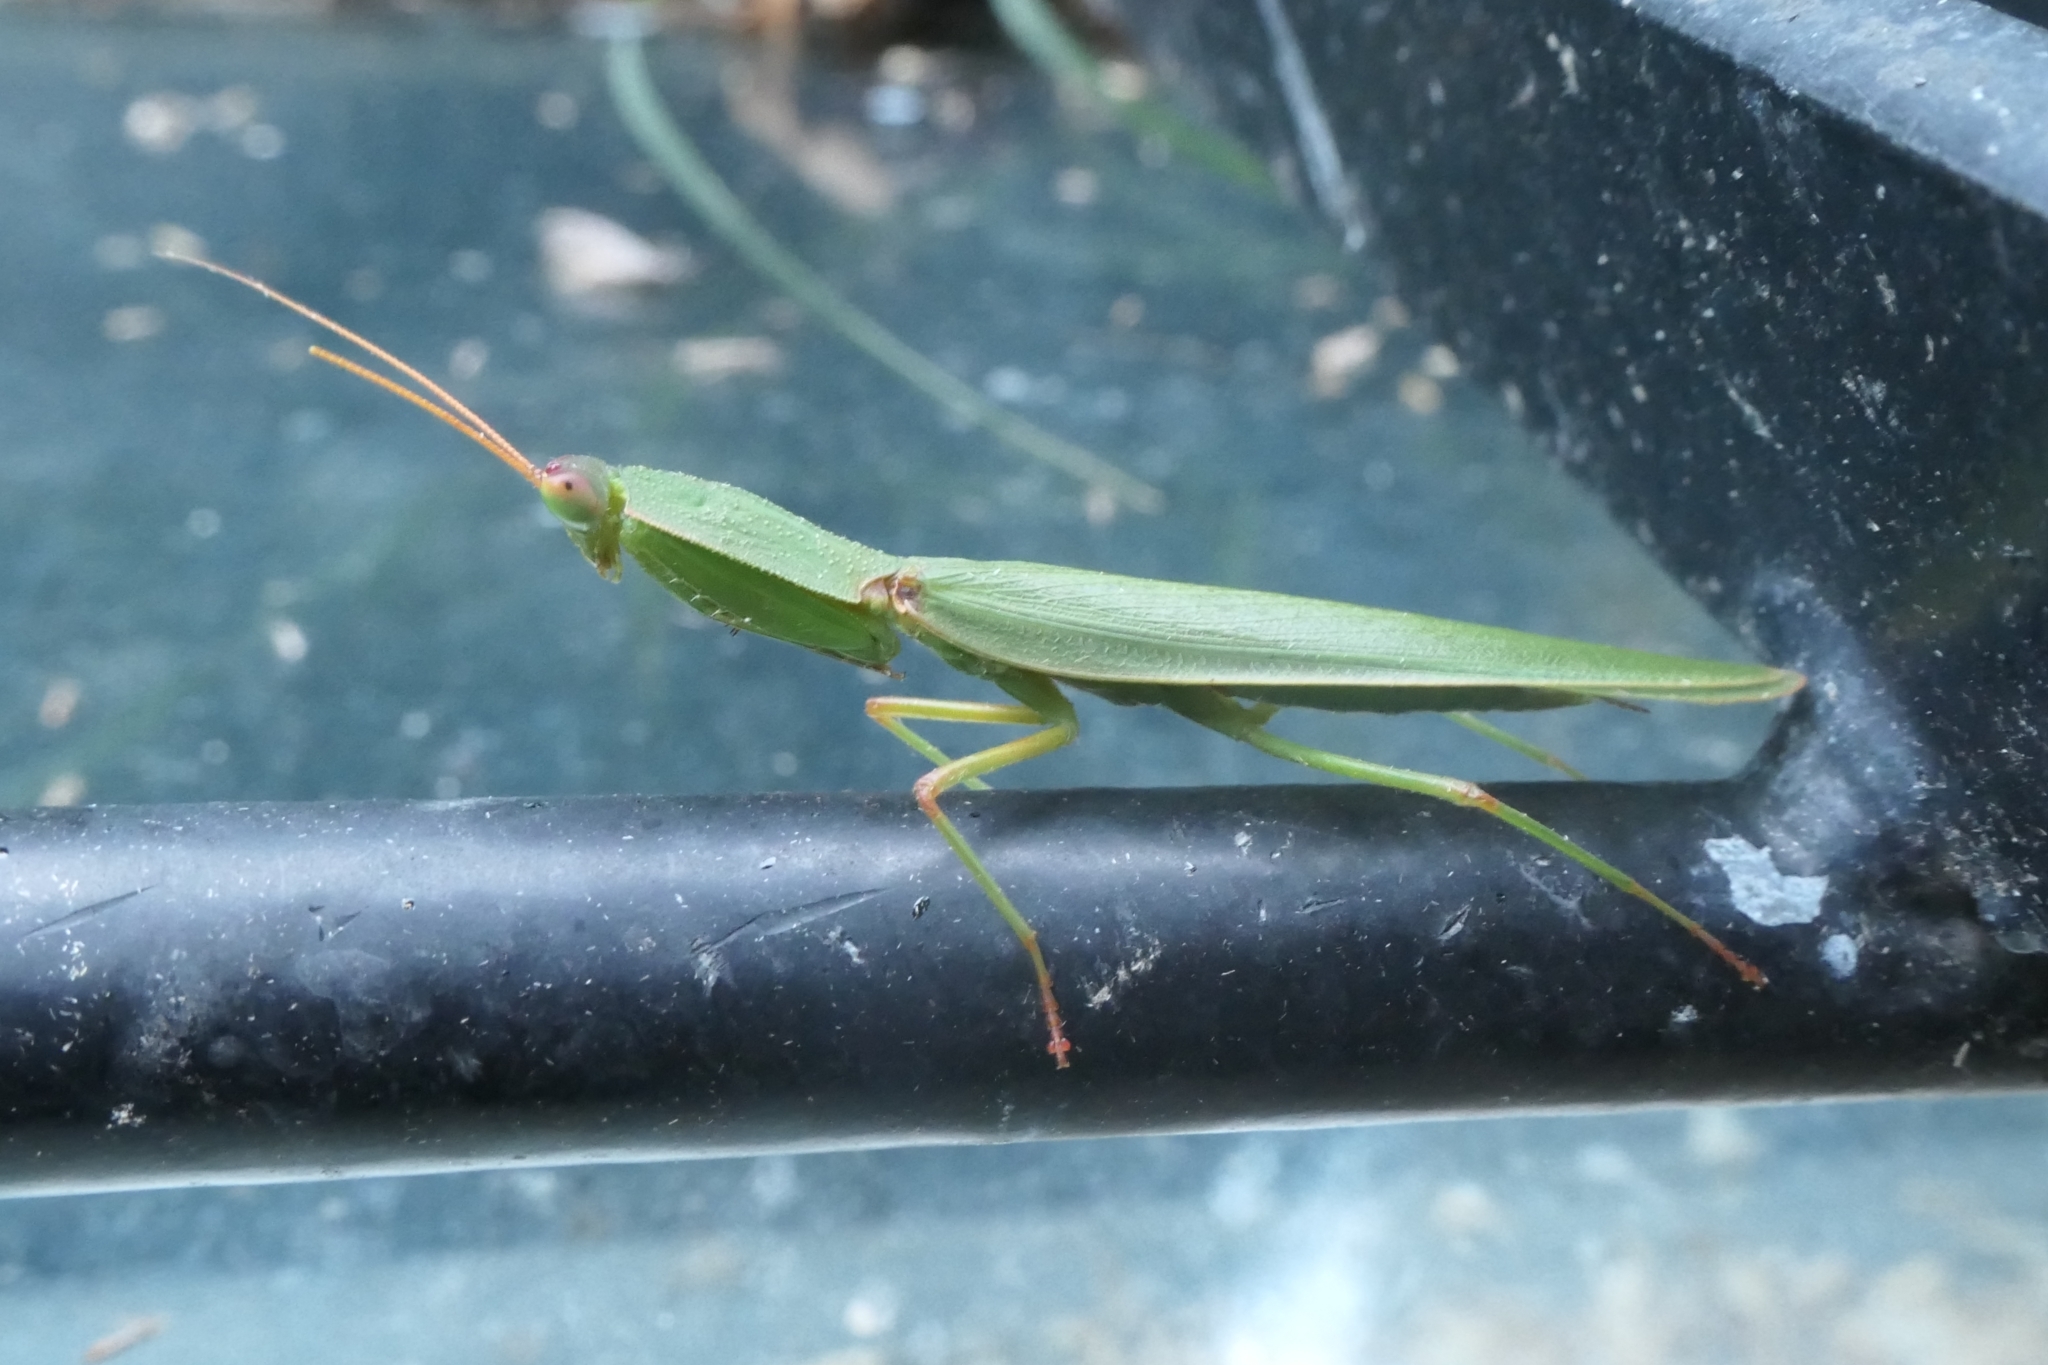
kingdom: Animalia
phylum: Arthropoda
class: Insecta
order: Mantodea
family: Mantidae
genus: Orthodera
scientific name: Orthodera novaezealandiae
